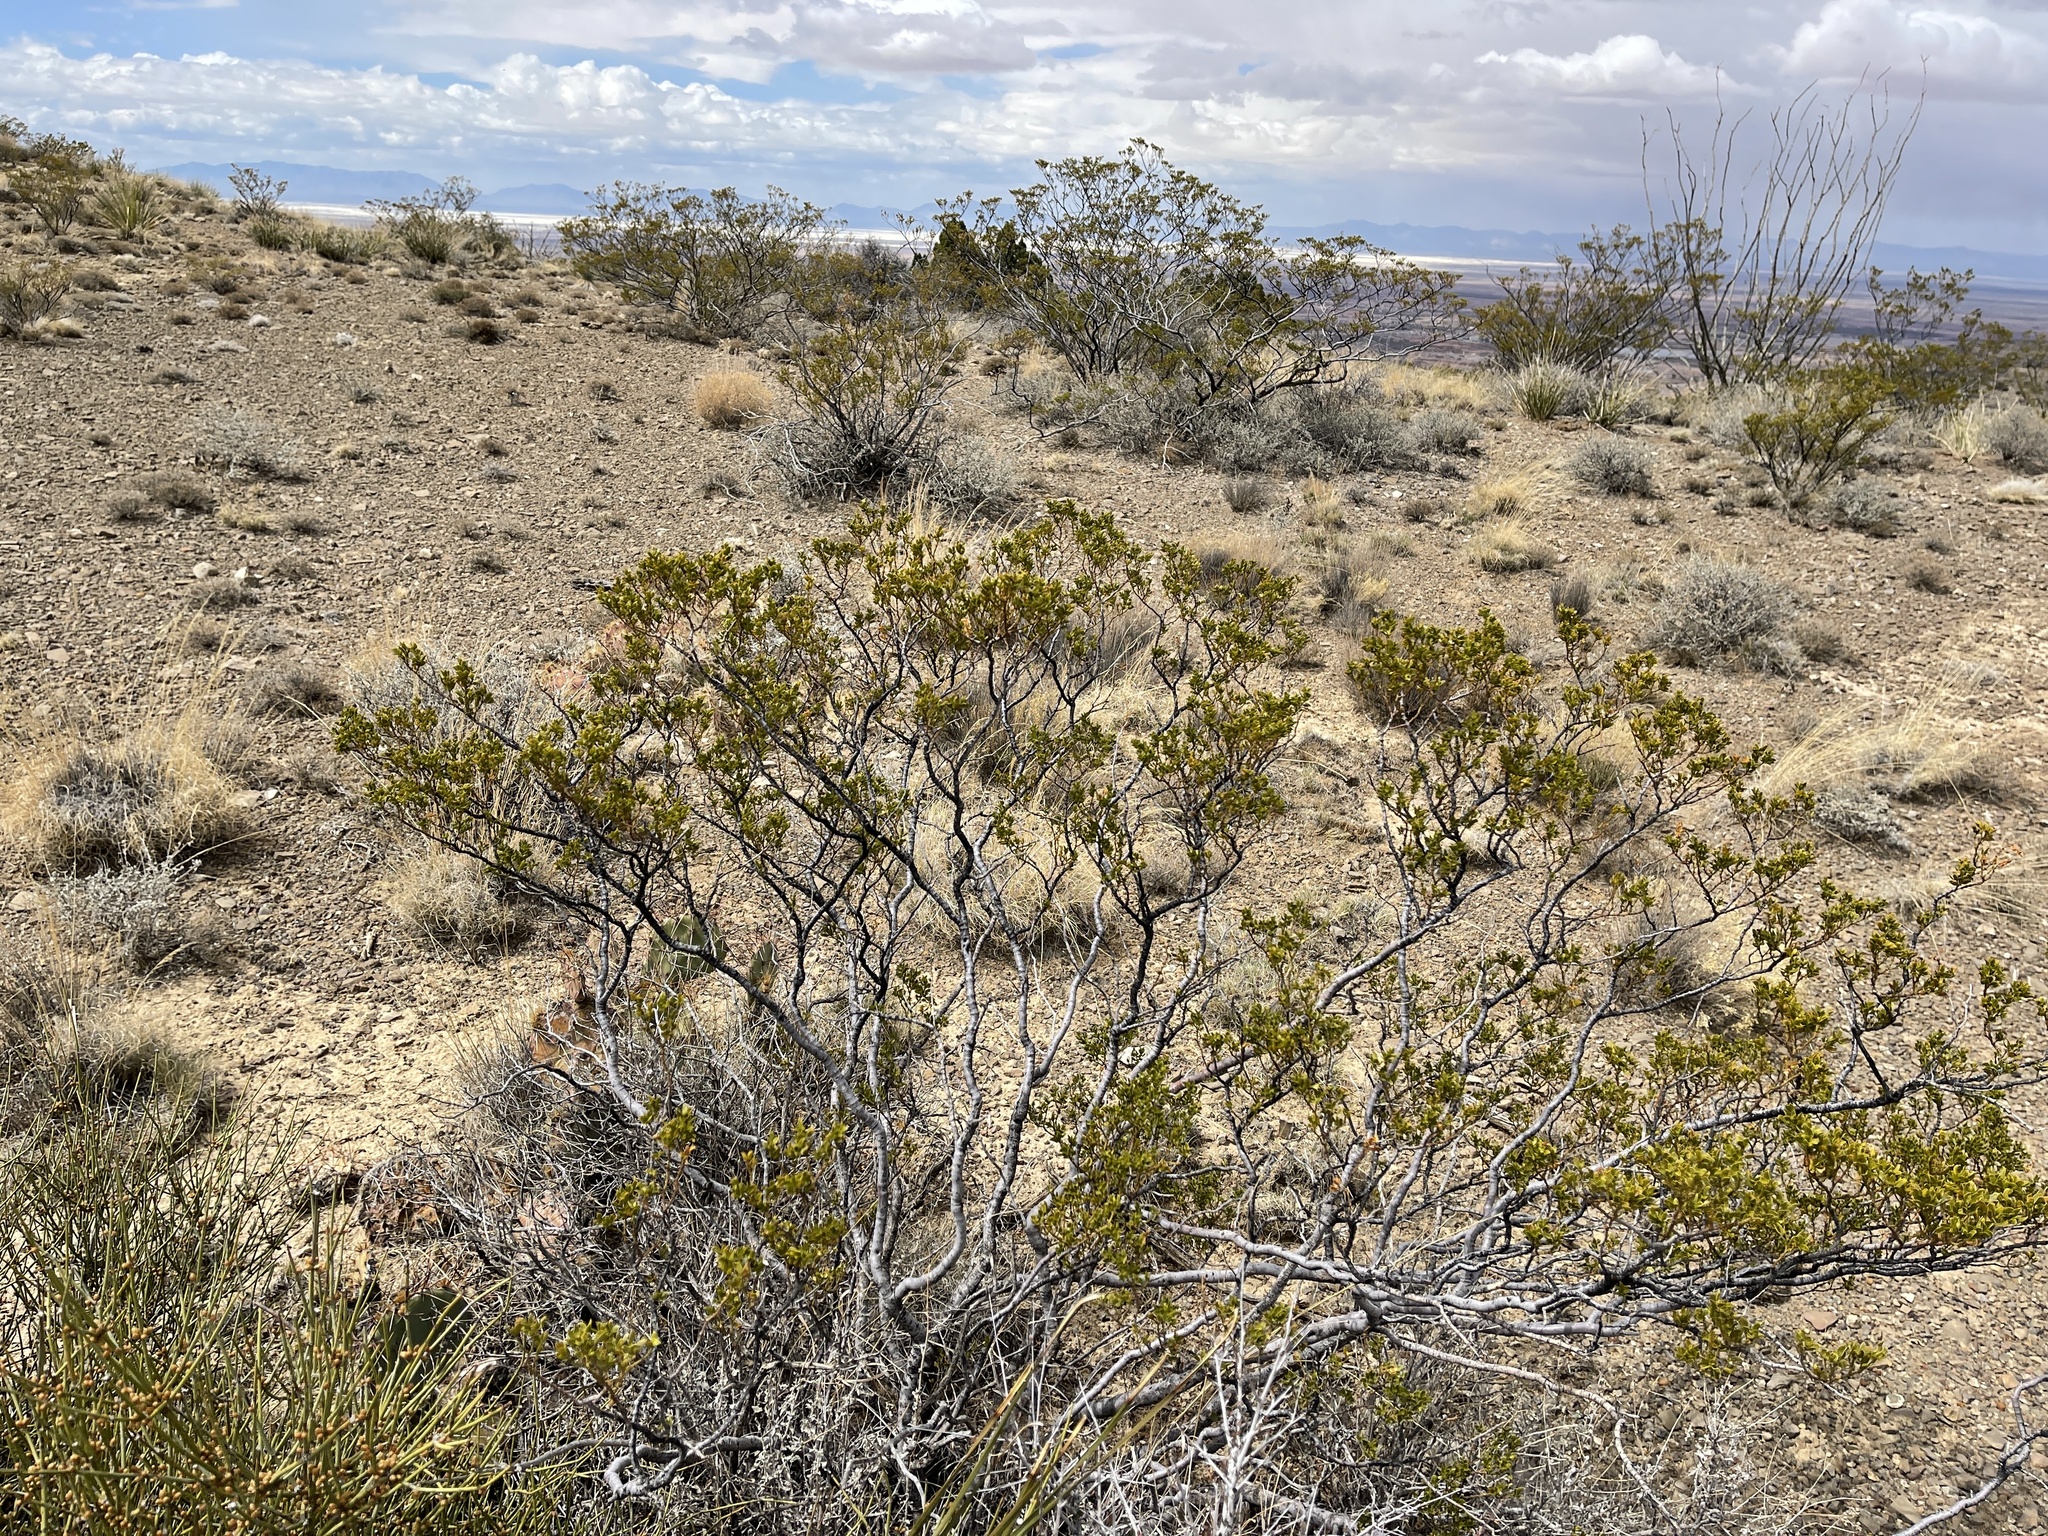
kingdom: Plantae
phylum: Tracheophyta
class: Magnoliopsida
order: Zygophyllales
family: Zygophyllaceae
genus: Larrea
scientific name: Larrea tridentata
